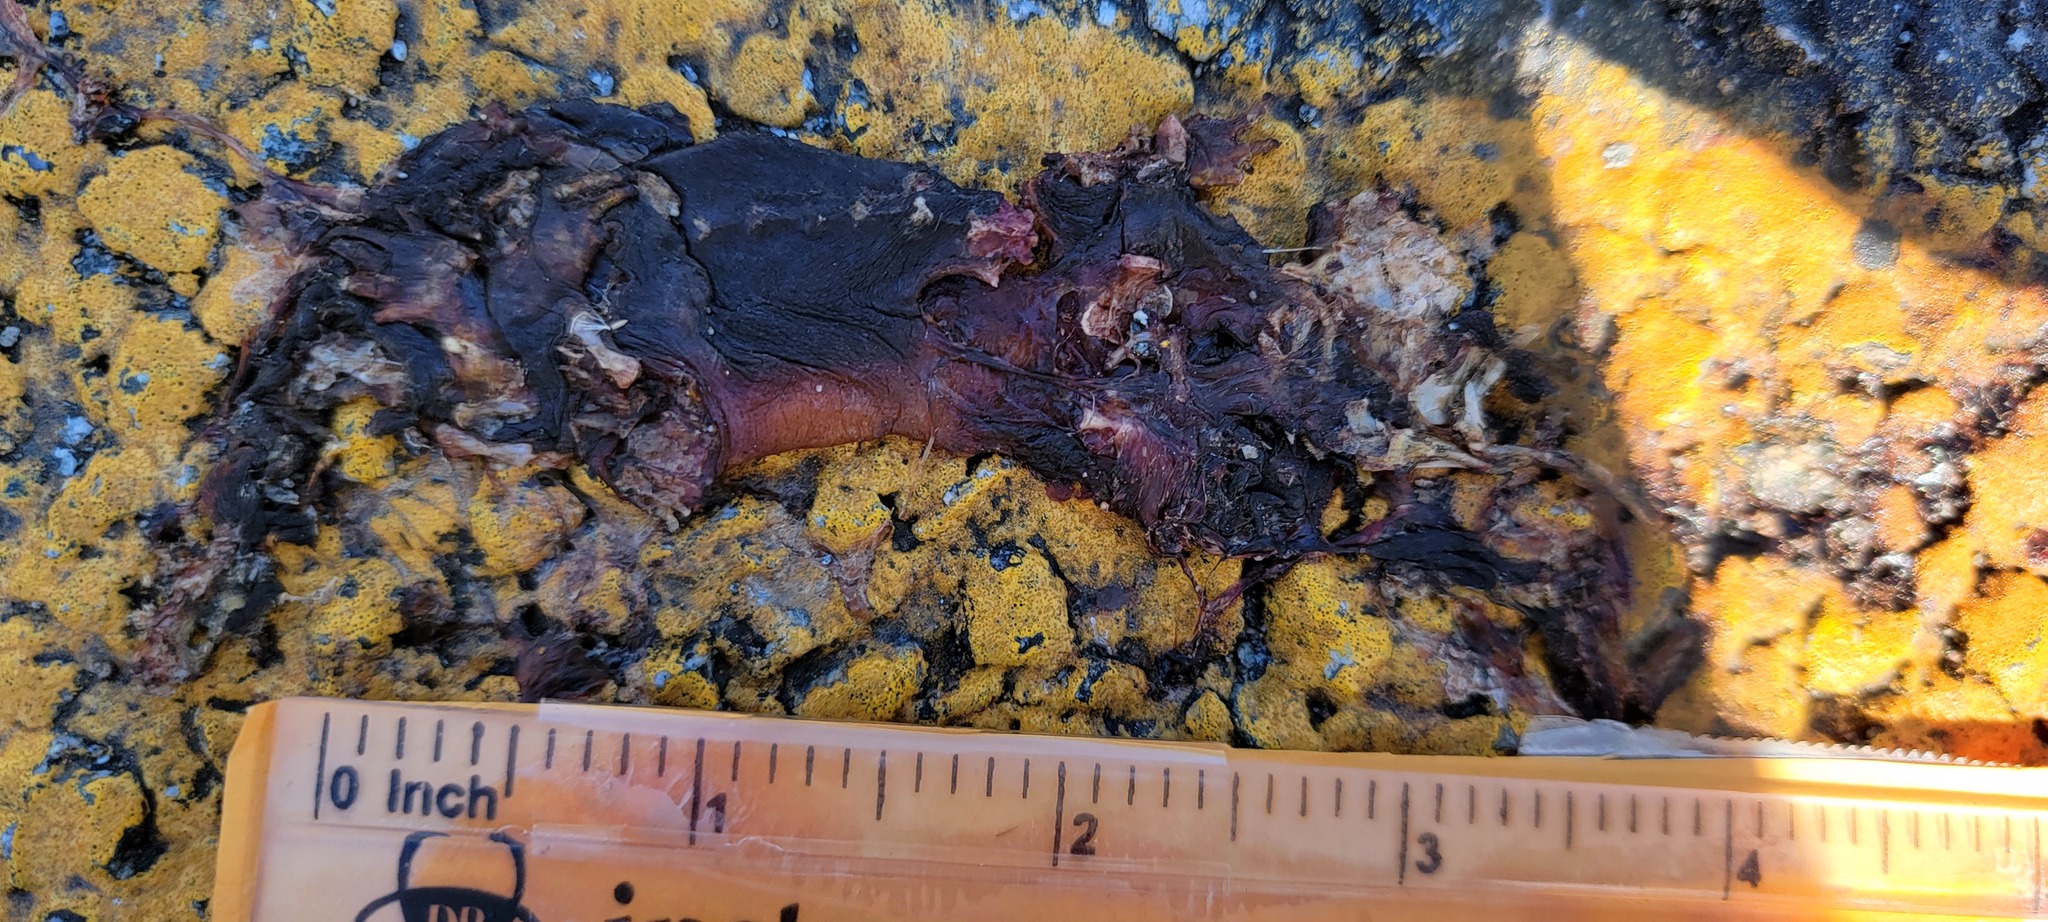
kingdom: Animalia
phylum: Chordata
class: Amphibia
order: Caudata
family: Salamandridae
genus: Taricha
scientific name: Taricha
